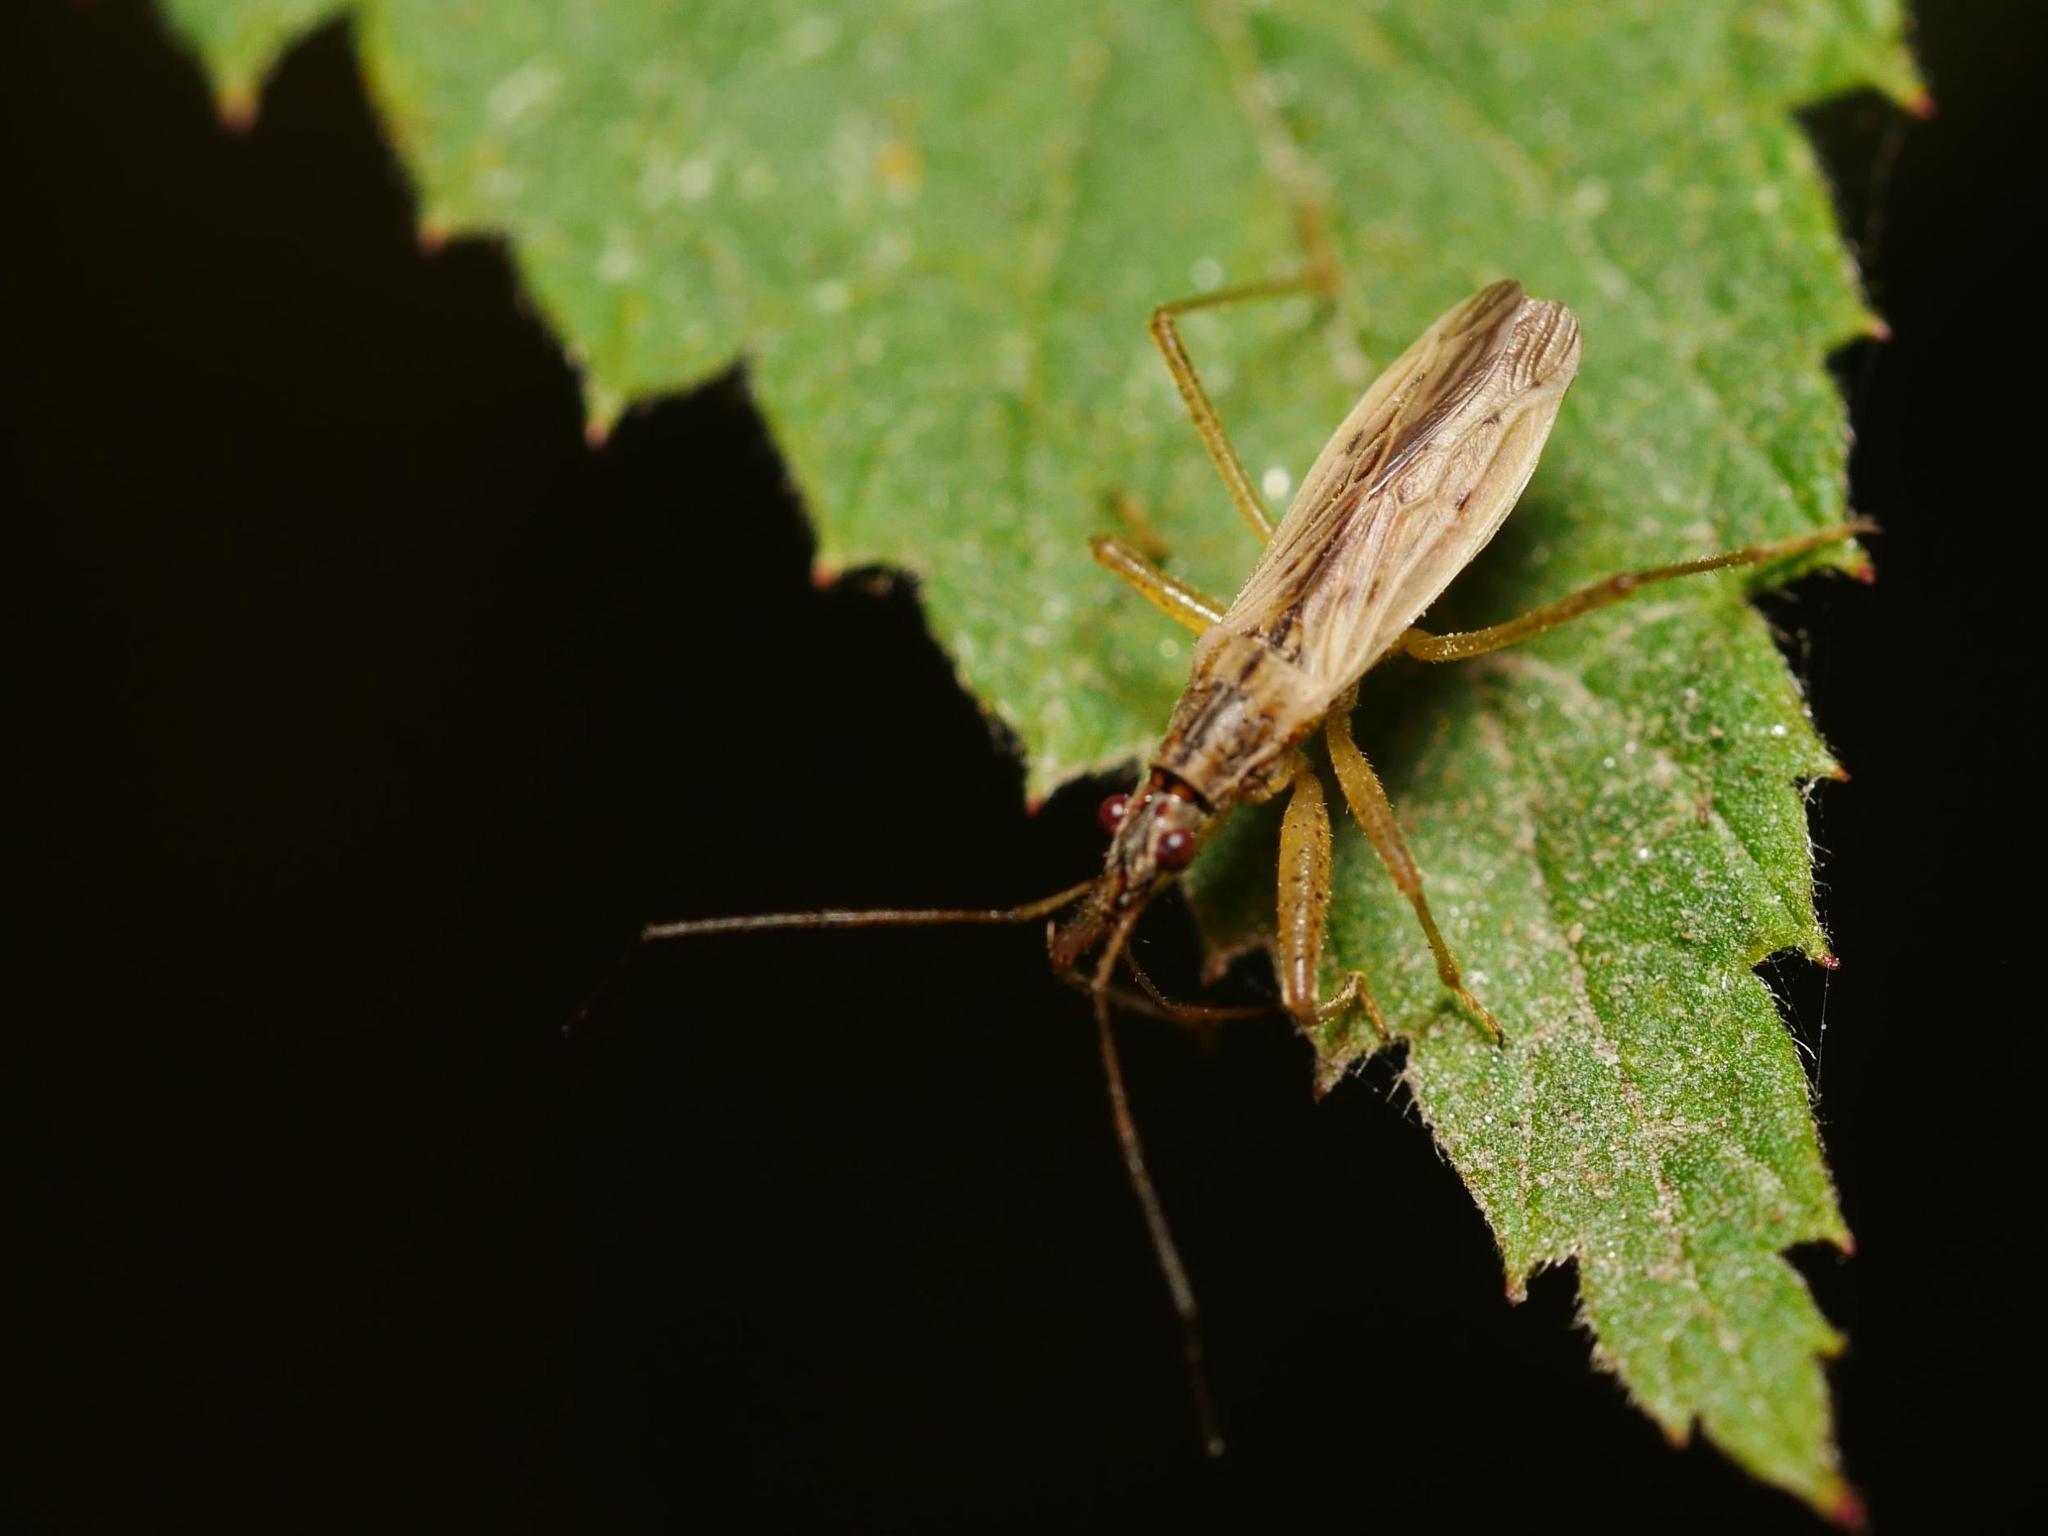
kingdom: Animalia
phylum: Arthropoda
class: Insecta
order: Hemiptera
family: Nabidae
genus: Nabis
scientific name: Nabis
